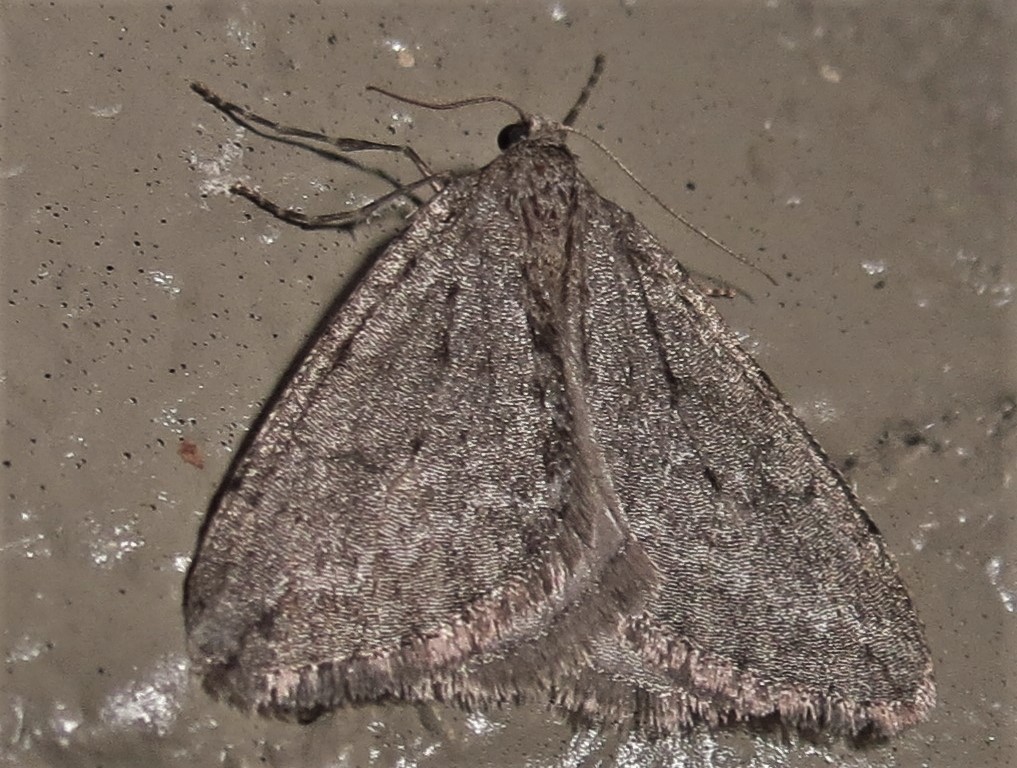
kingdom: Animalia
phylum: Arthropoda
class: Insecta
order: Lepidoptera
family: Geometridae
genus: Paleacrita
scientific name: Paleacrita vernata
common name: Spring cankerworm
